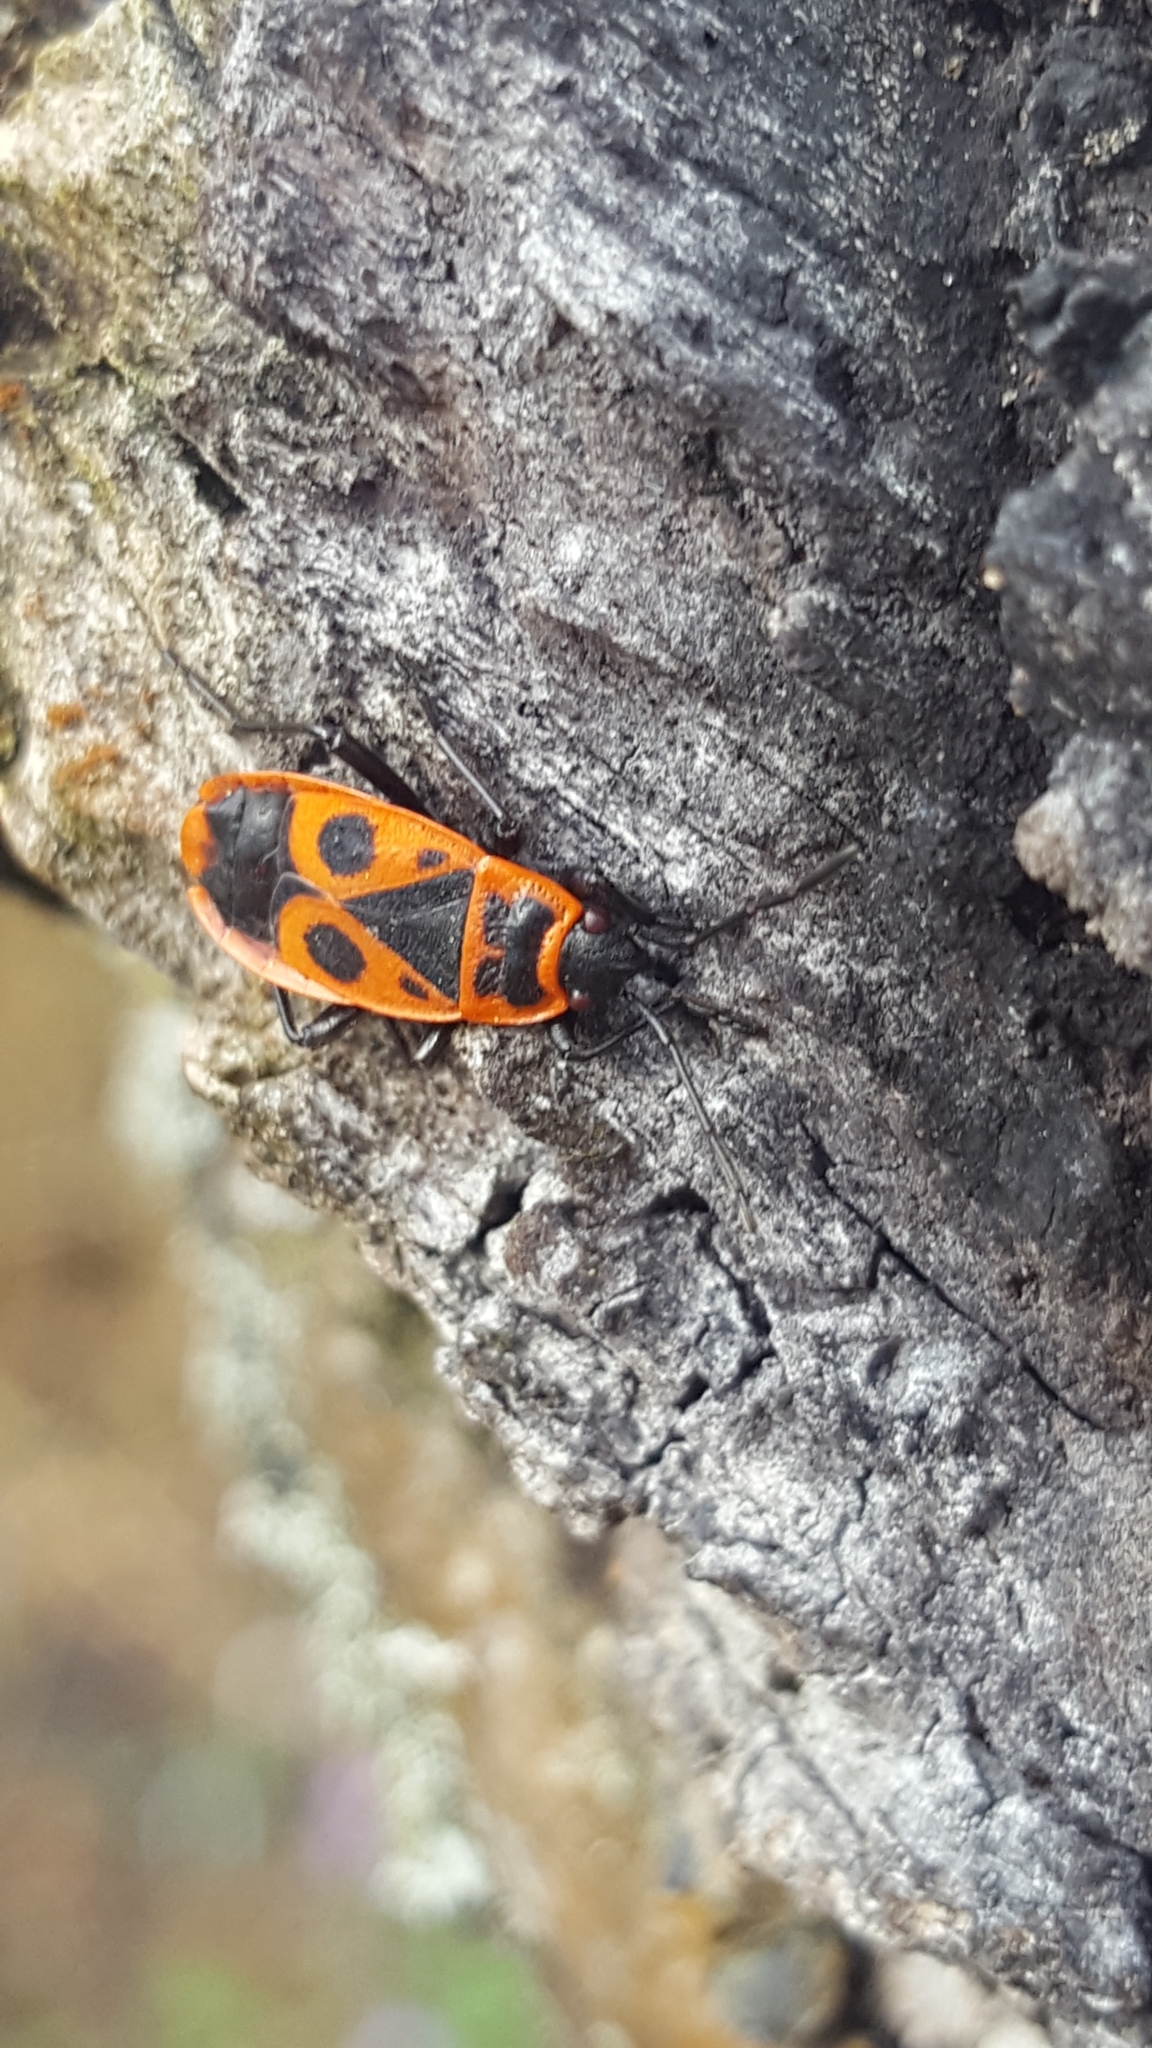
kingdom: Animalia
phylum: Arthropoda
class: Insecta
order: Hemiptera
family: Pyrrhocoridae
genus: Pyrrhocoris
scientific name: Pyrrhocoris apterus
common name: Firebug
